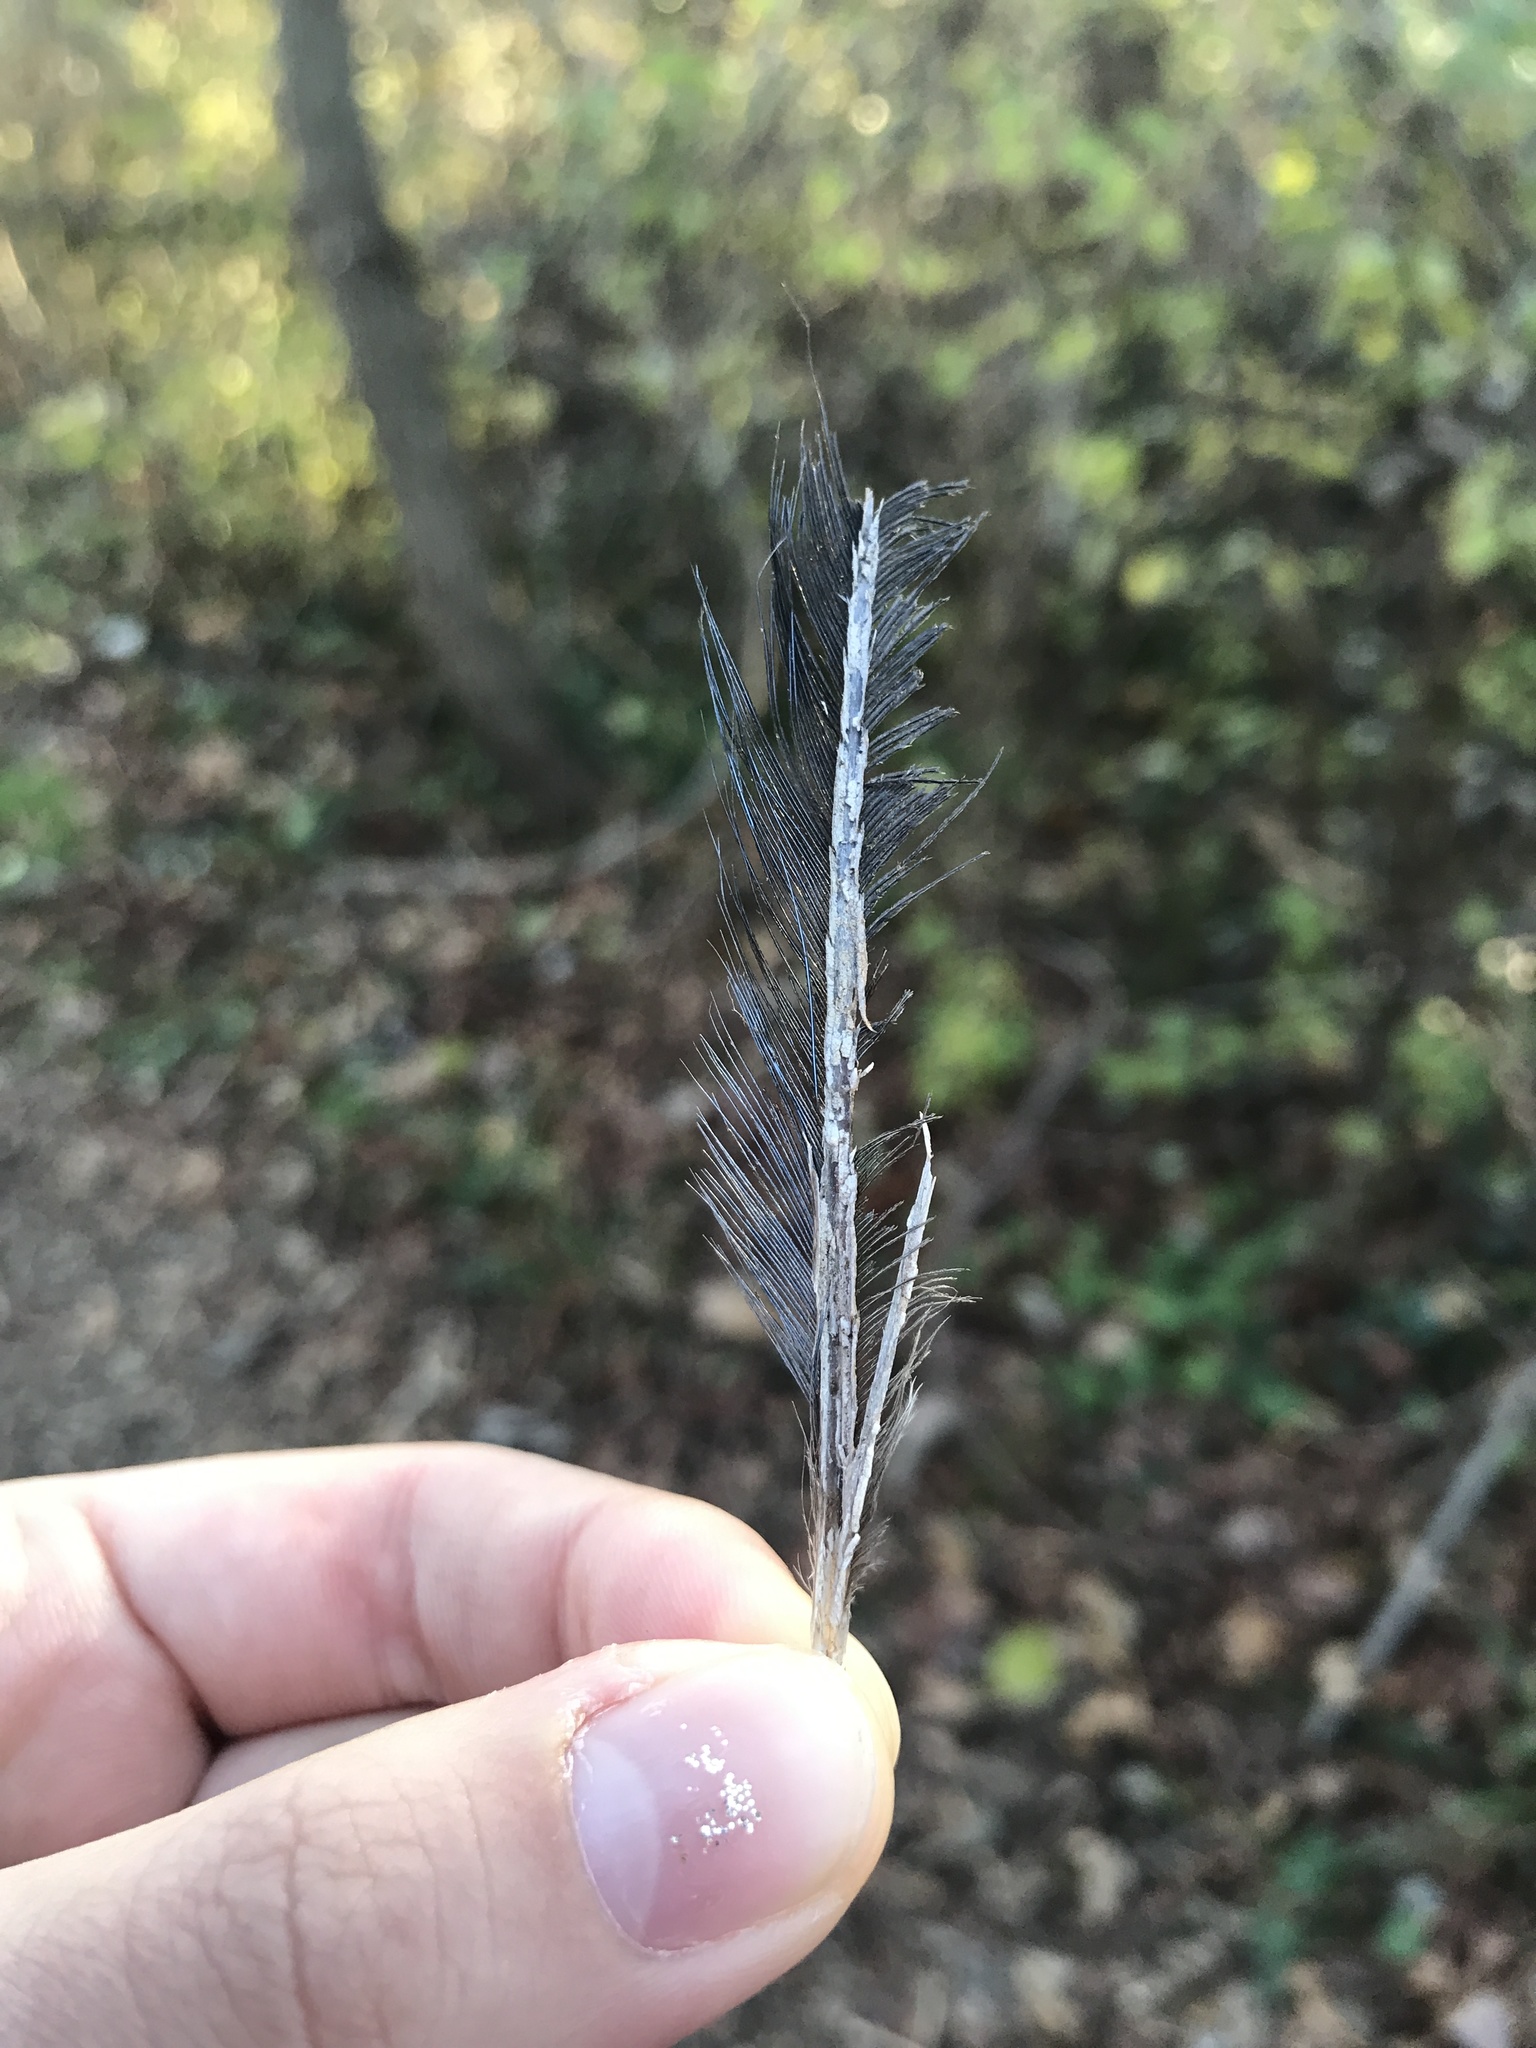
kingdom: Animalia
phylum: Chordata
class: Aves
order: Passeriformes
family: Corvidae
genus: Cyanocitta
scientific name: Cyanocitta cristata
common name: Blue jay
